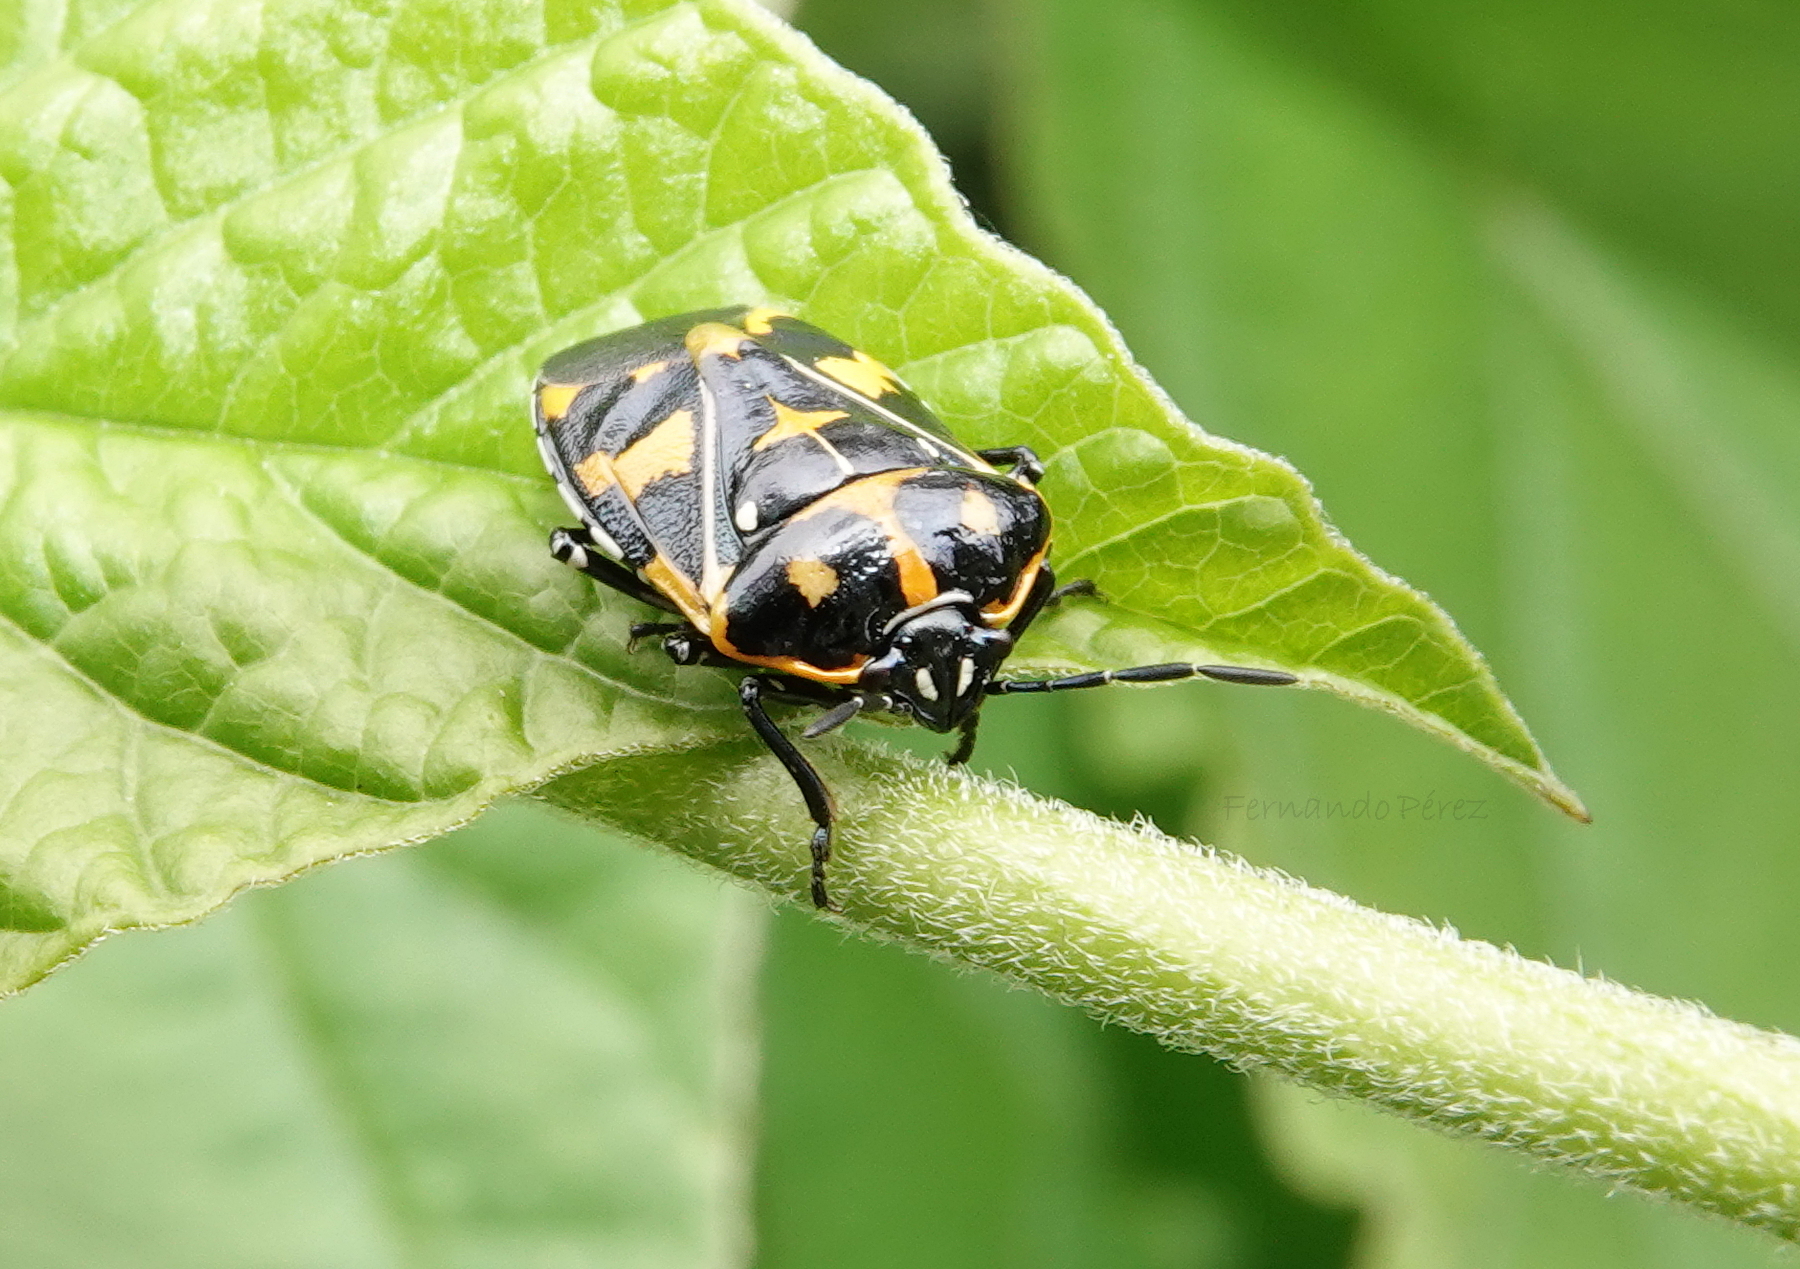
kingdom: Animalia
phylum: Arthropoda
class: Insecta
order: Hemiptera
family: Pentatomidae
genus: Murgantia
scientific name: Murgantia histrionica
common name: Harlequin bug
